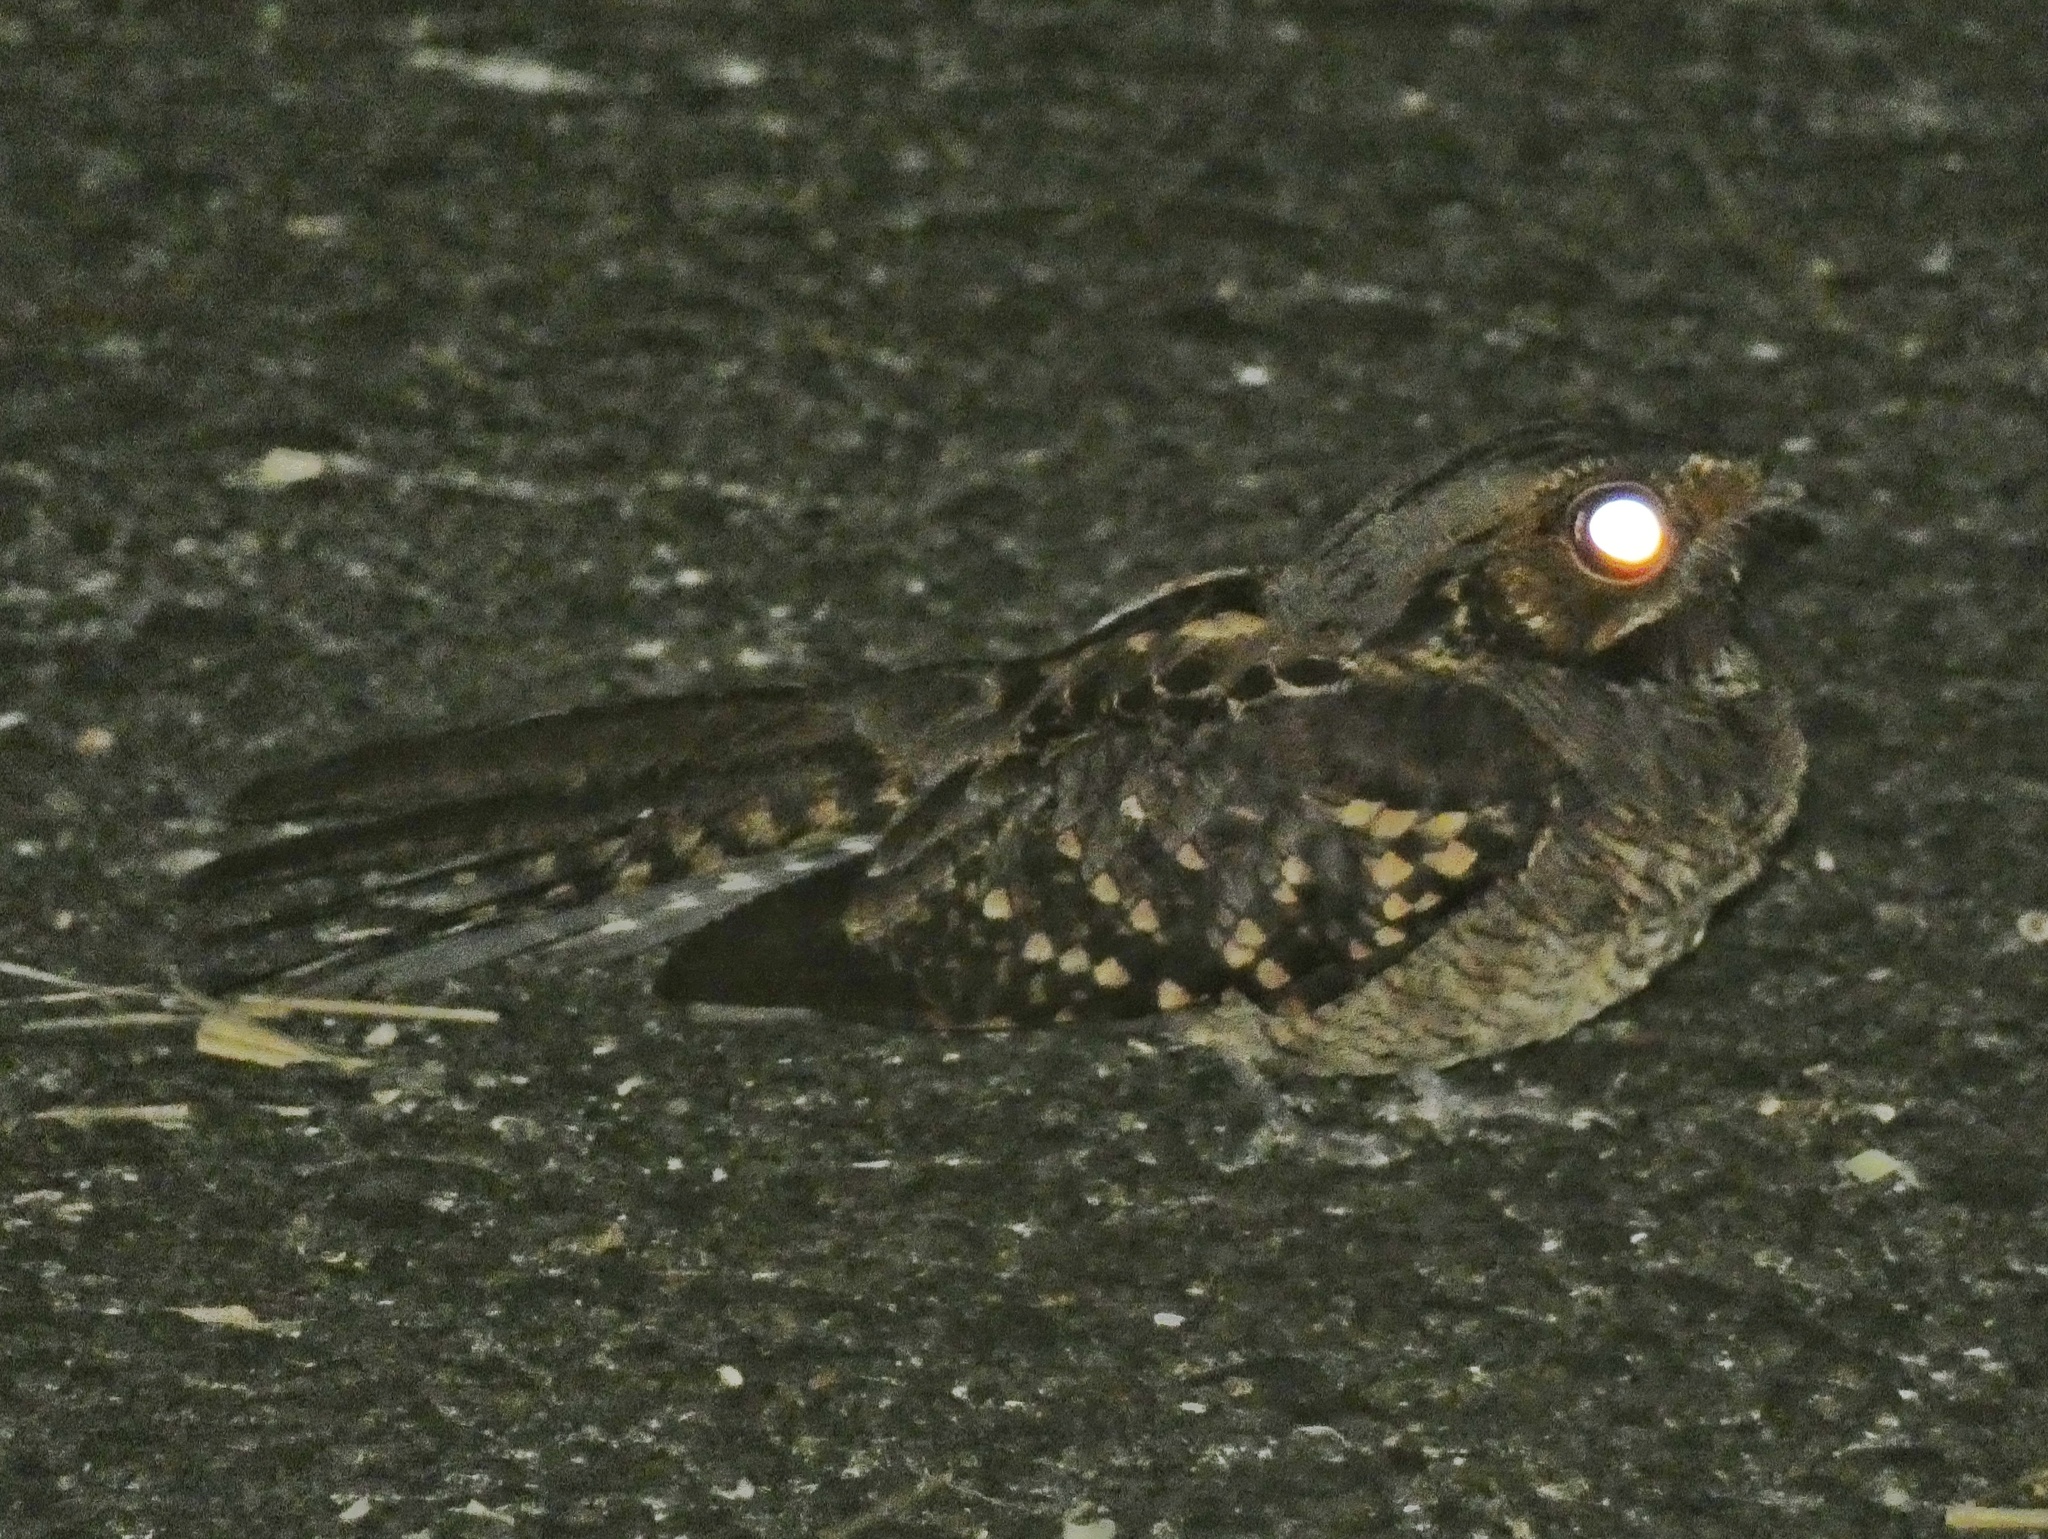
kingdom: Animalia
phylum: Chordata
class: Aves
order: Caprimulgiformes
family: Caprimulgidae
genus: Nyctidromus
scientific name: Nyctidromus albicollis
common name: Pauraque
